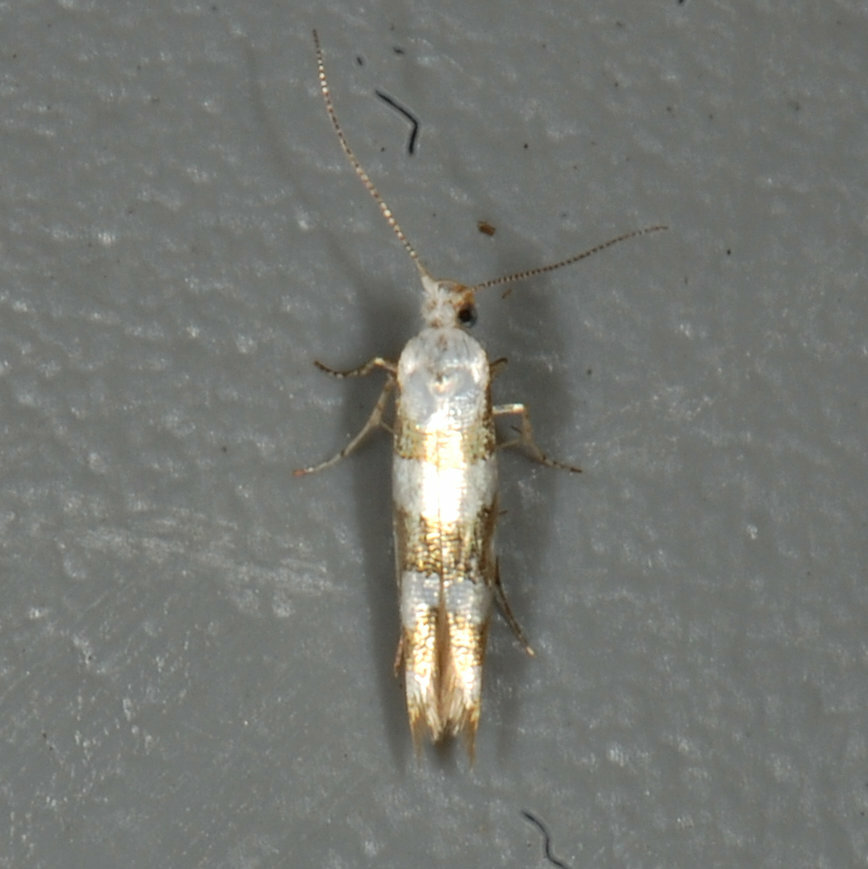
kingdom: Animalia
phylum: Arthropoda
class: Insecta
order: Lepidoptera
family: Argyresthiidae
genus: Argyresthia
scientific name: Argyresthia calliphanes
